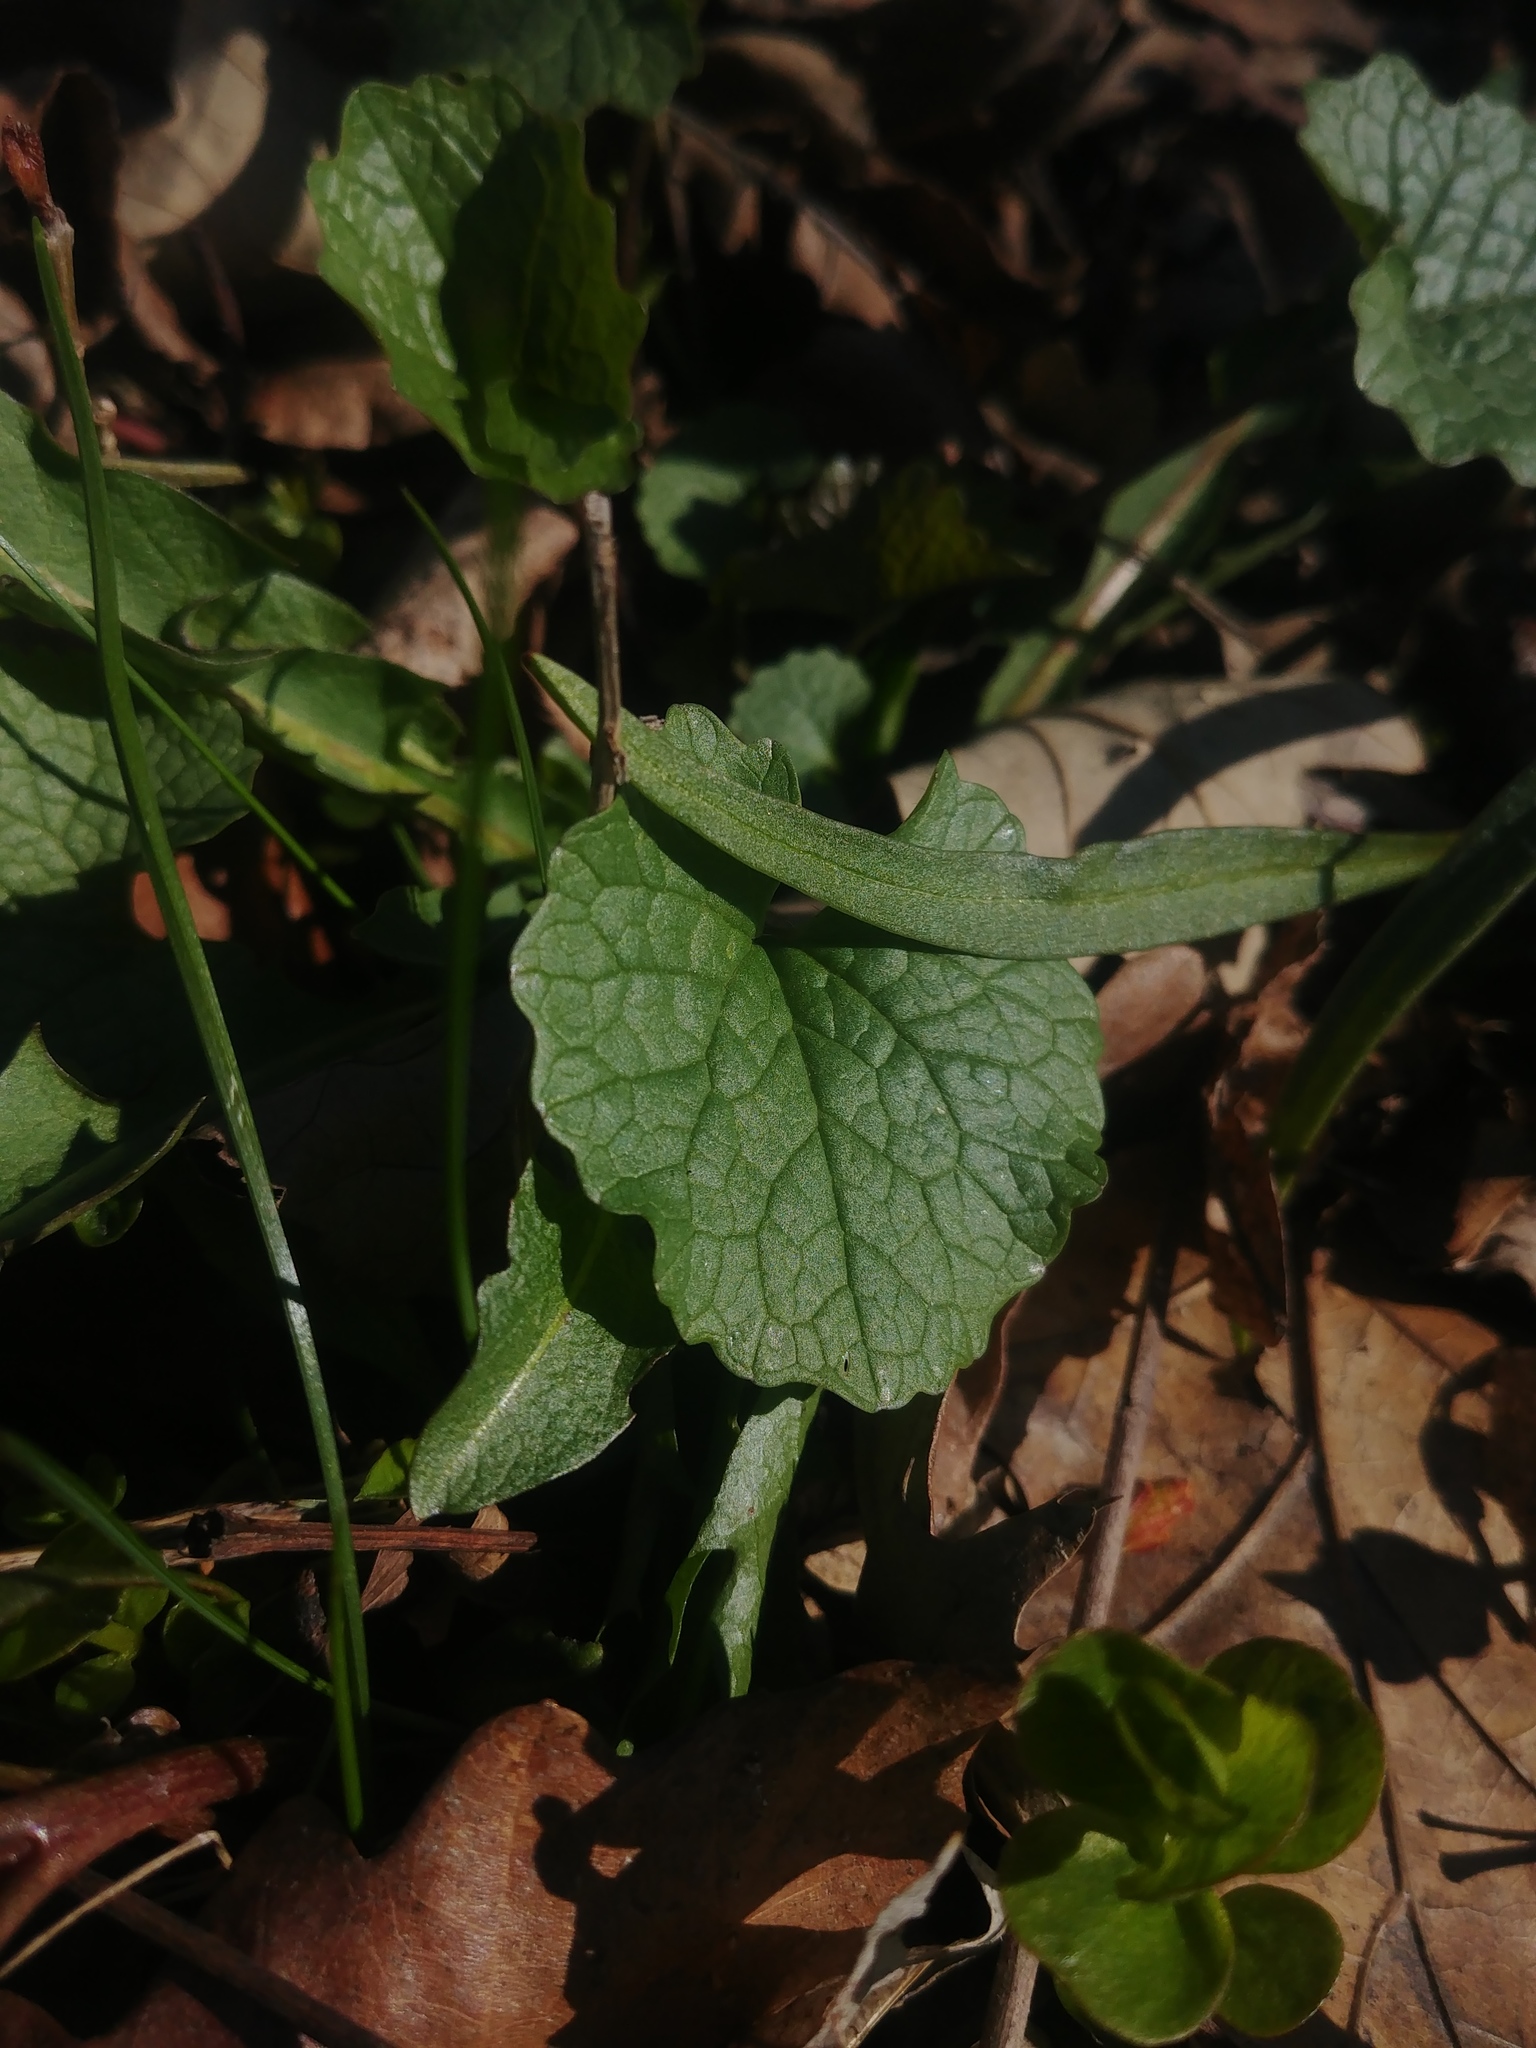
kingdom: Plantae
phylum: Tracheophyta
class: Magnoliopsida
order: Brassicales
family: Brassicaceae
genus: Alliaria
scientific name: Alliaria petiolata
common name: Garlic mustard
